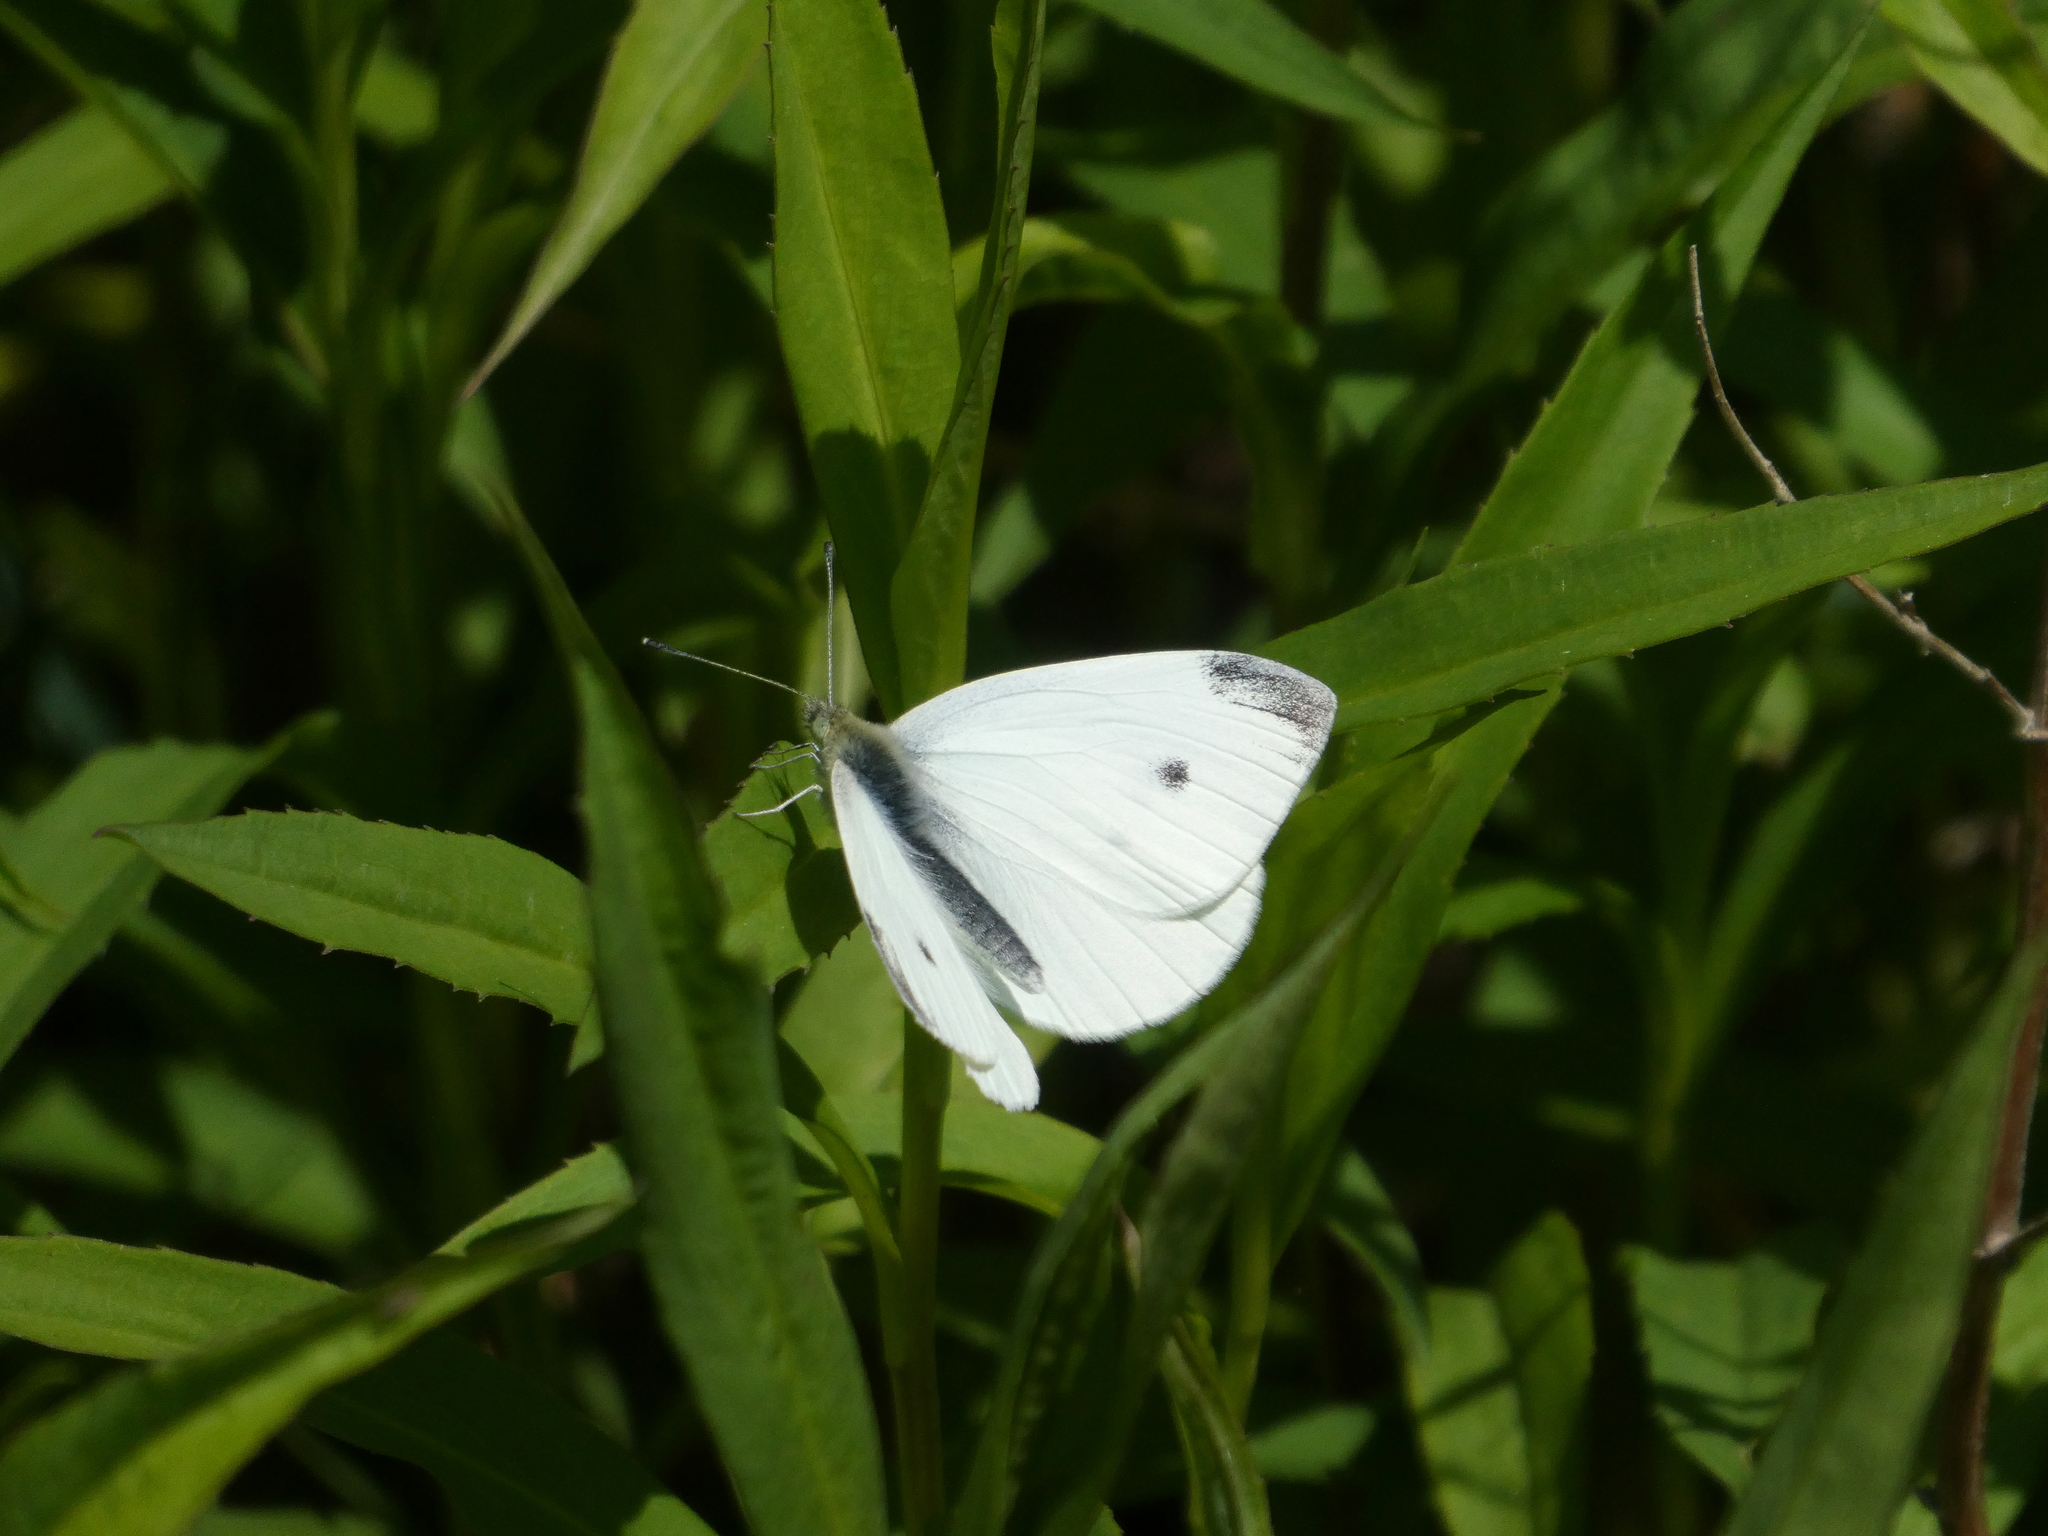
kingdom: Animalia
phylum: Arthropoda
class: Insecta
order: Lepidoptera
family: Pieridae
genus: Pieris
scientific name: Pieris rapae
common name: Small white
